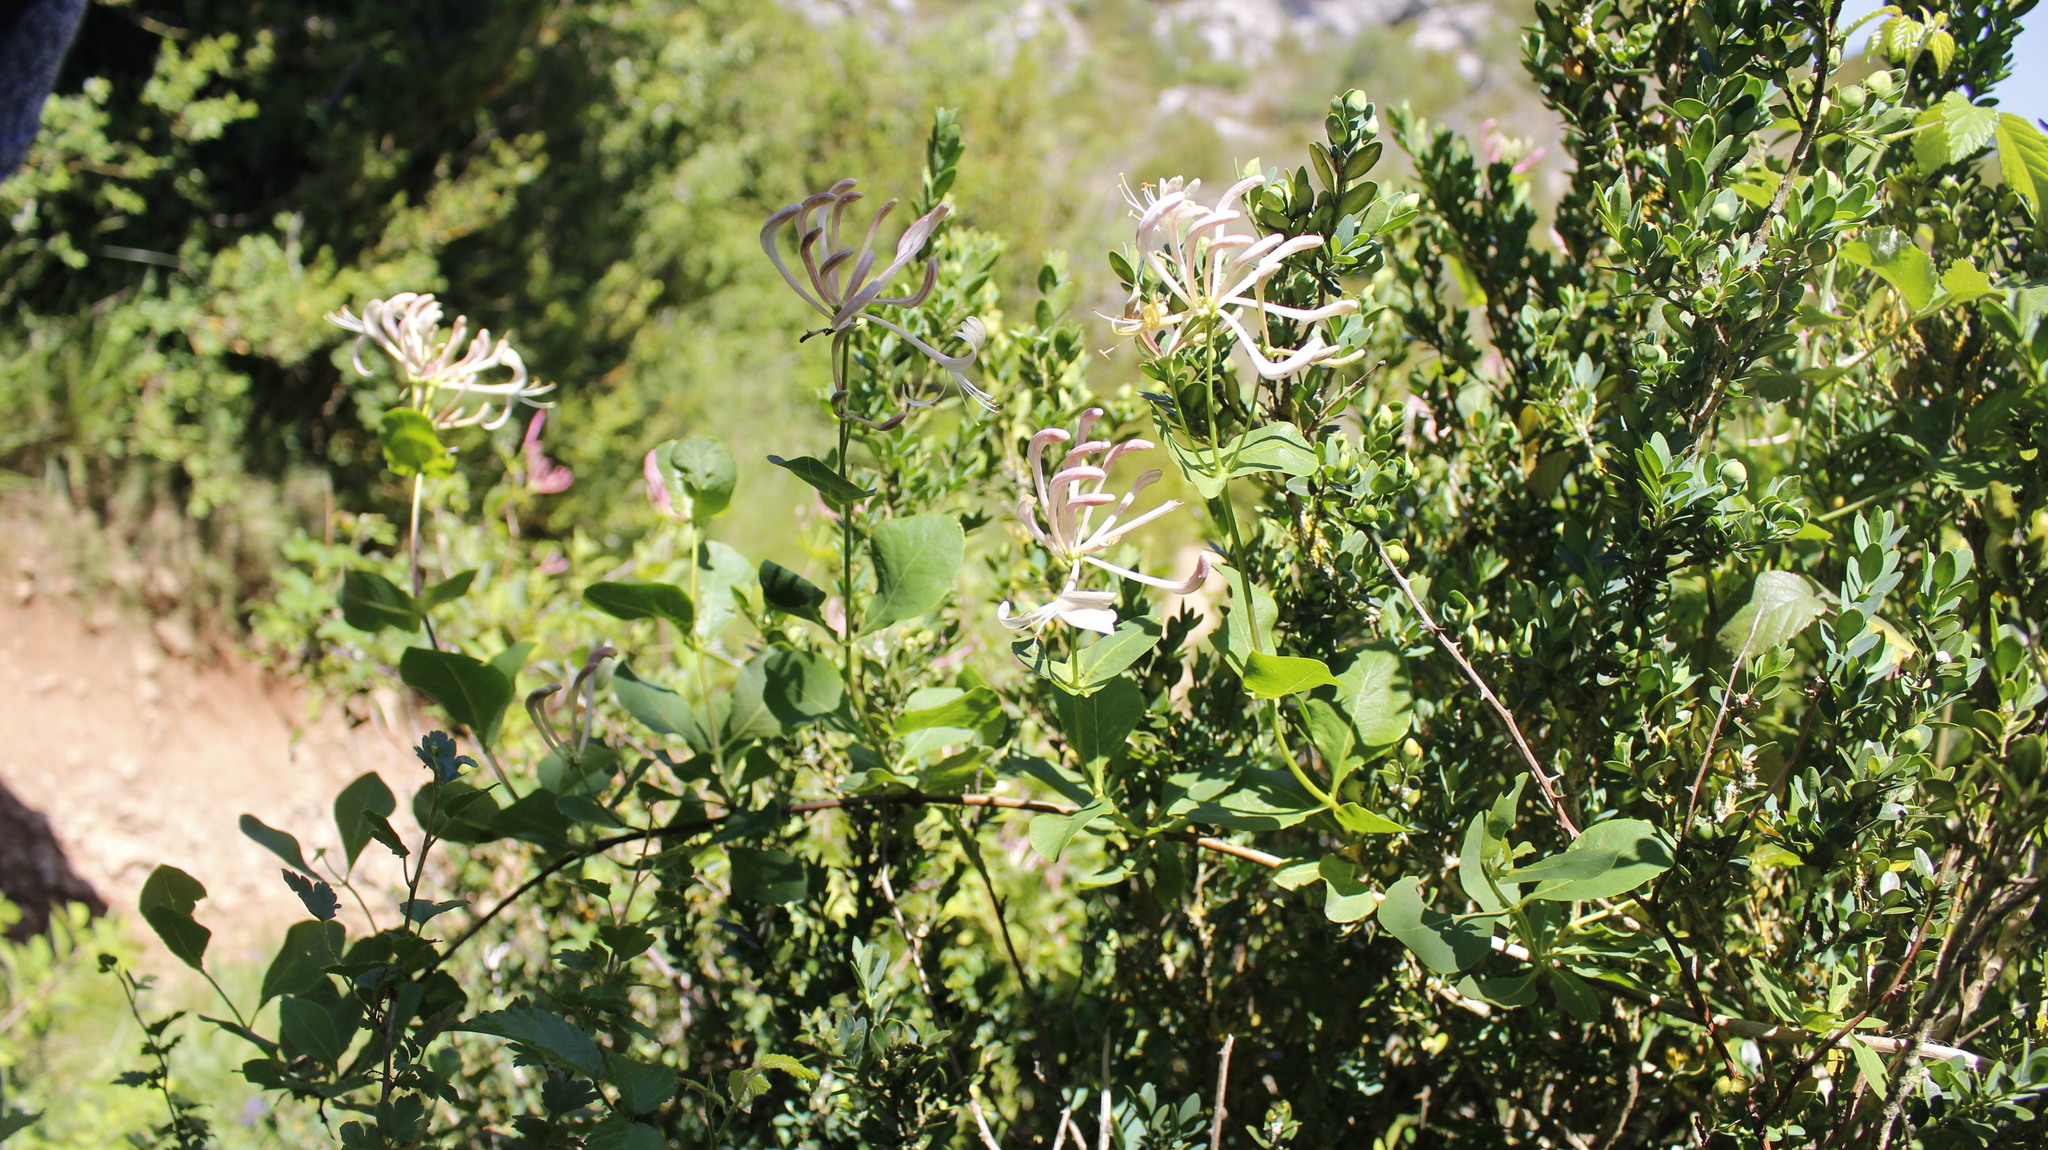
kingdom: Plantae
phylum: Tracheophyta
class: Magnoliopsida
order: Dipsacales
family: Caprifoliaceae
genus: Lonicera
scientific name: Lonicera etrusca
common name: Etruscan honeysuckle
